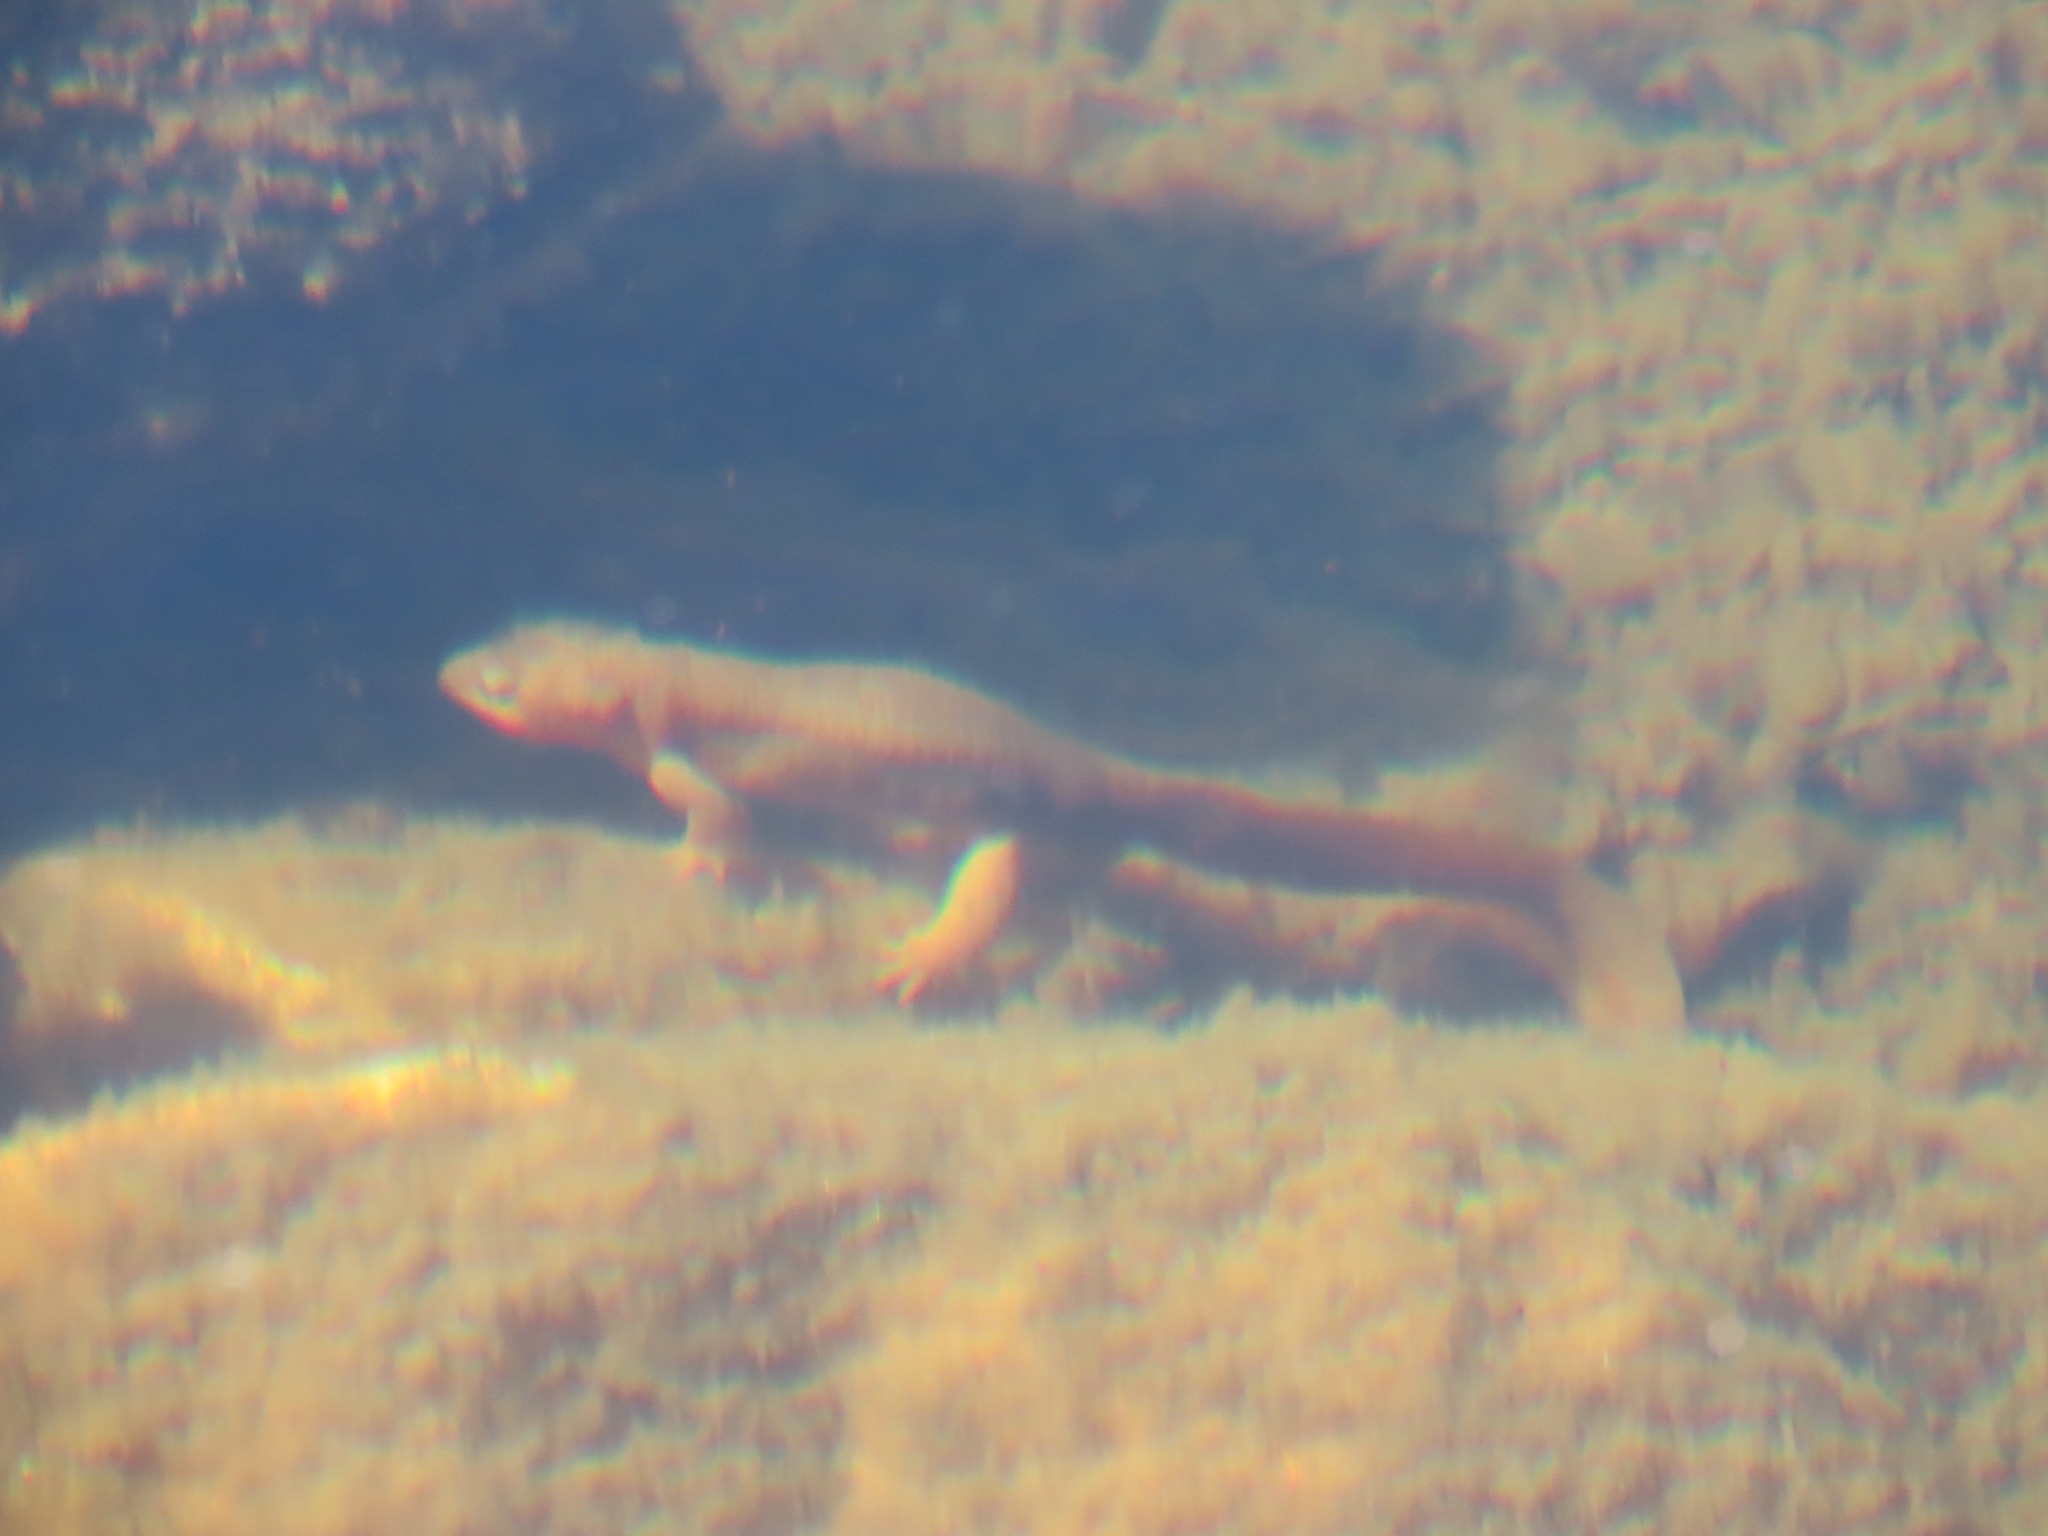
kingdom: Animalia
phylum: Chordata
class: Amphibia
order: Caudata
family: Salamandridae
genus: Taricha
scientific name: Taricha granulosa
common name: Roughskin newt
